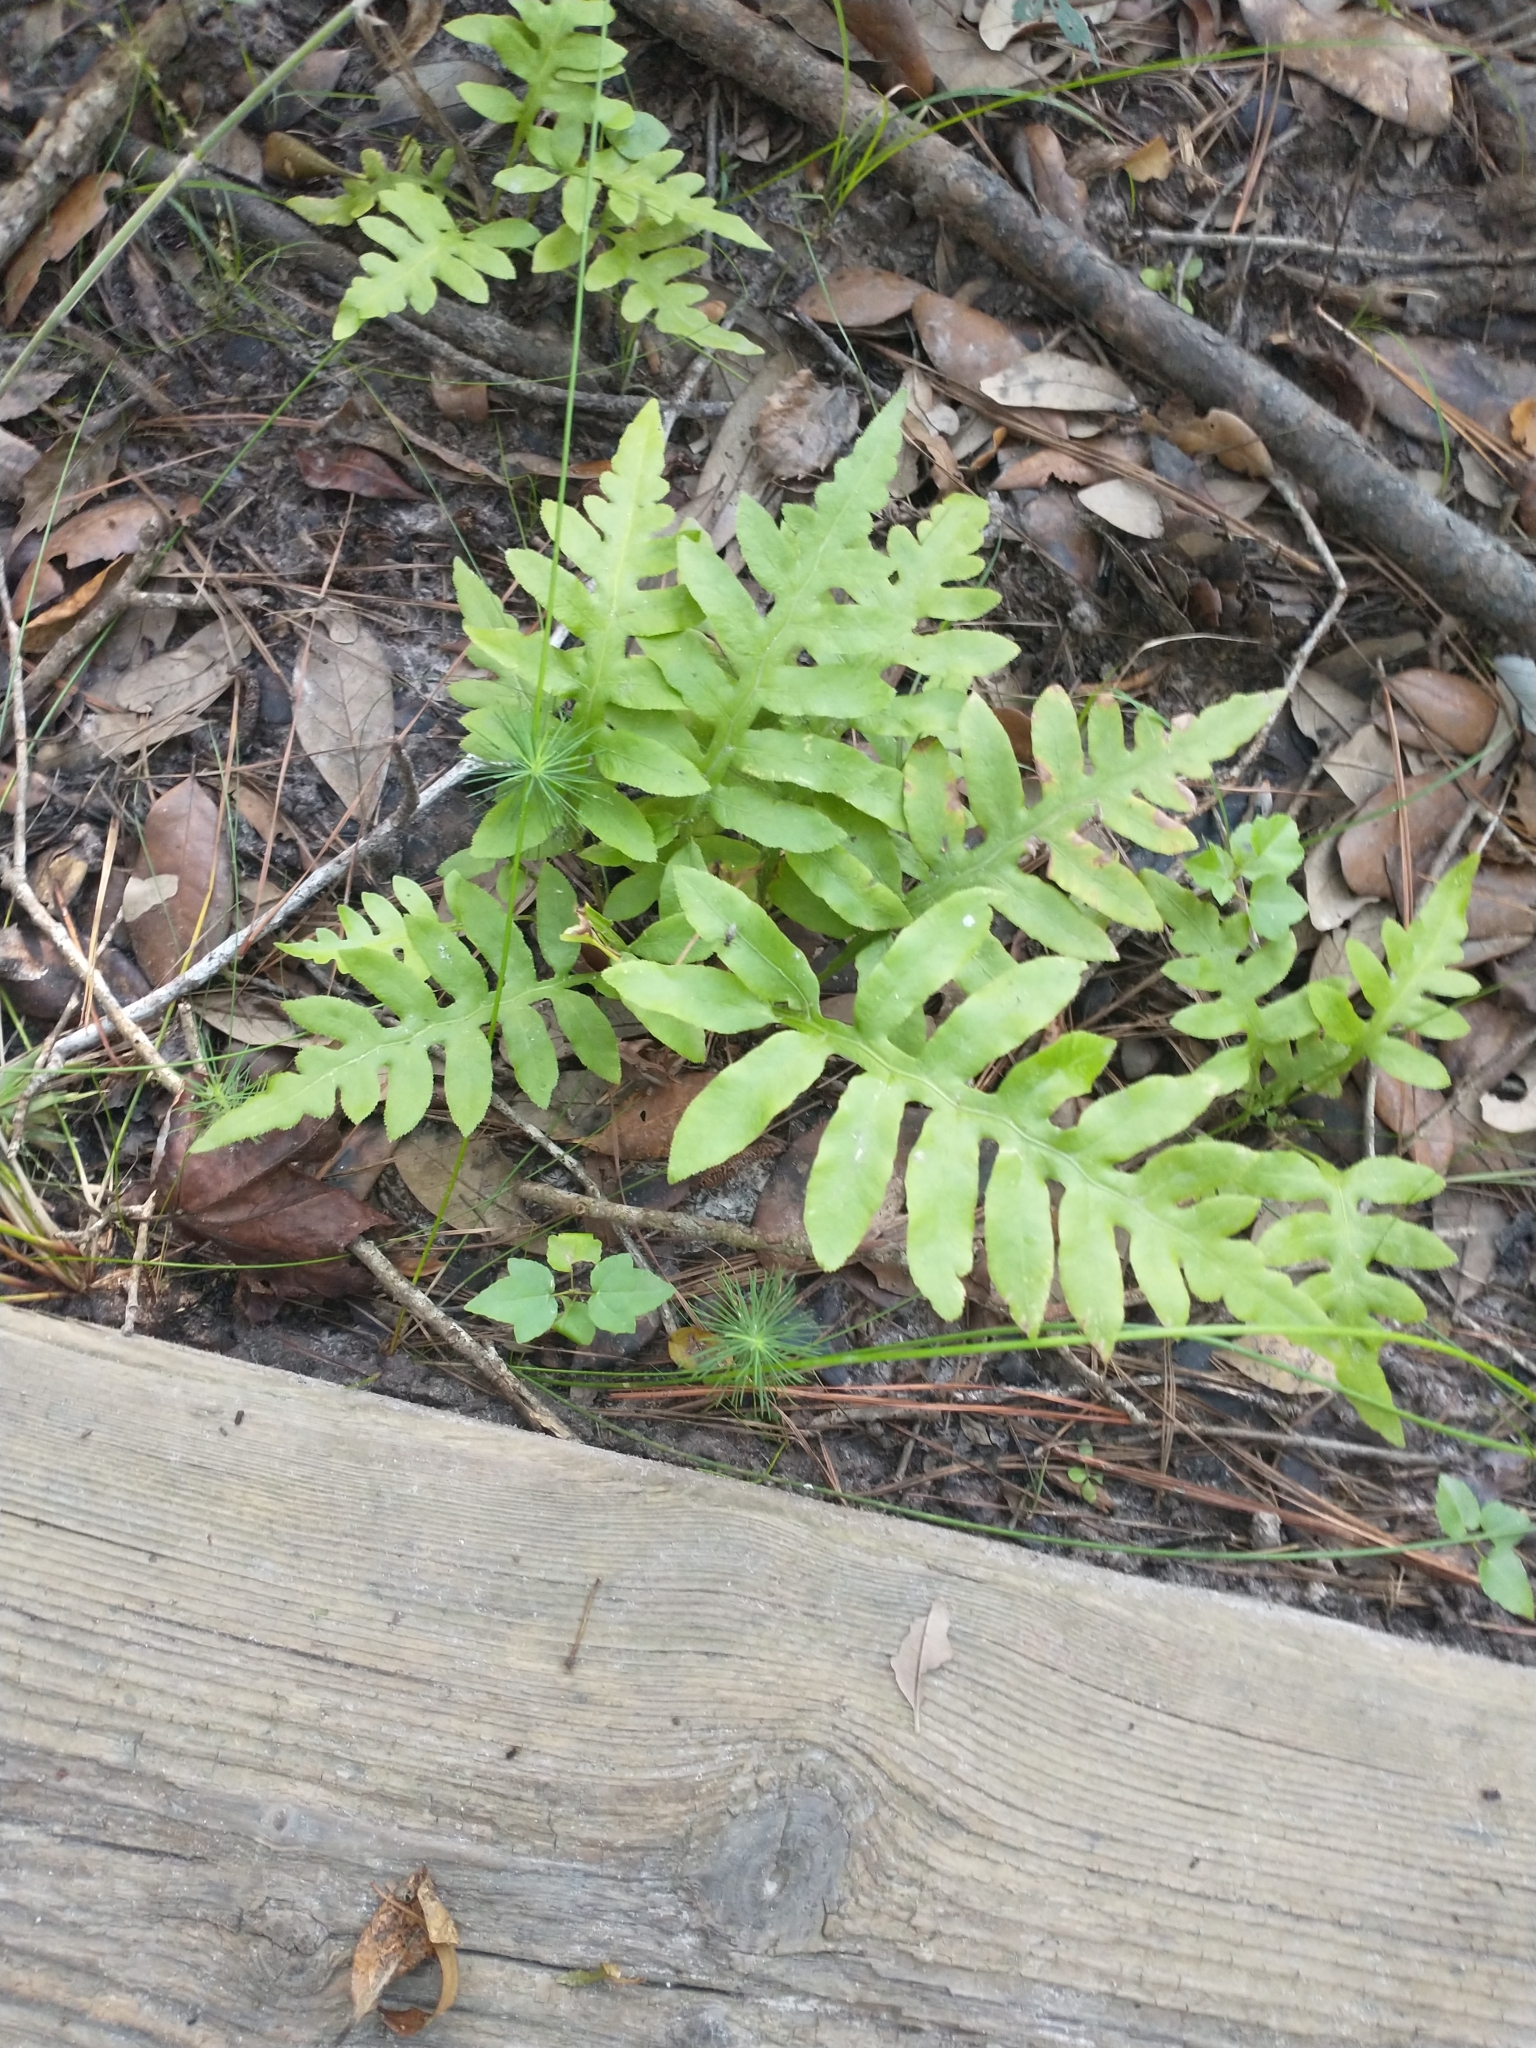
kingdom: Plantae
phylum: Tracheophyta
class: Polypodiopsida
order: Polypodiales
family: Blechnaceae
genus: Lorinseria
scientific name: Lorinseria areolata
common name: Dwarf chain fern
